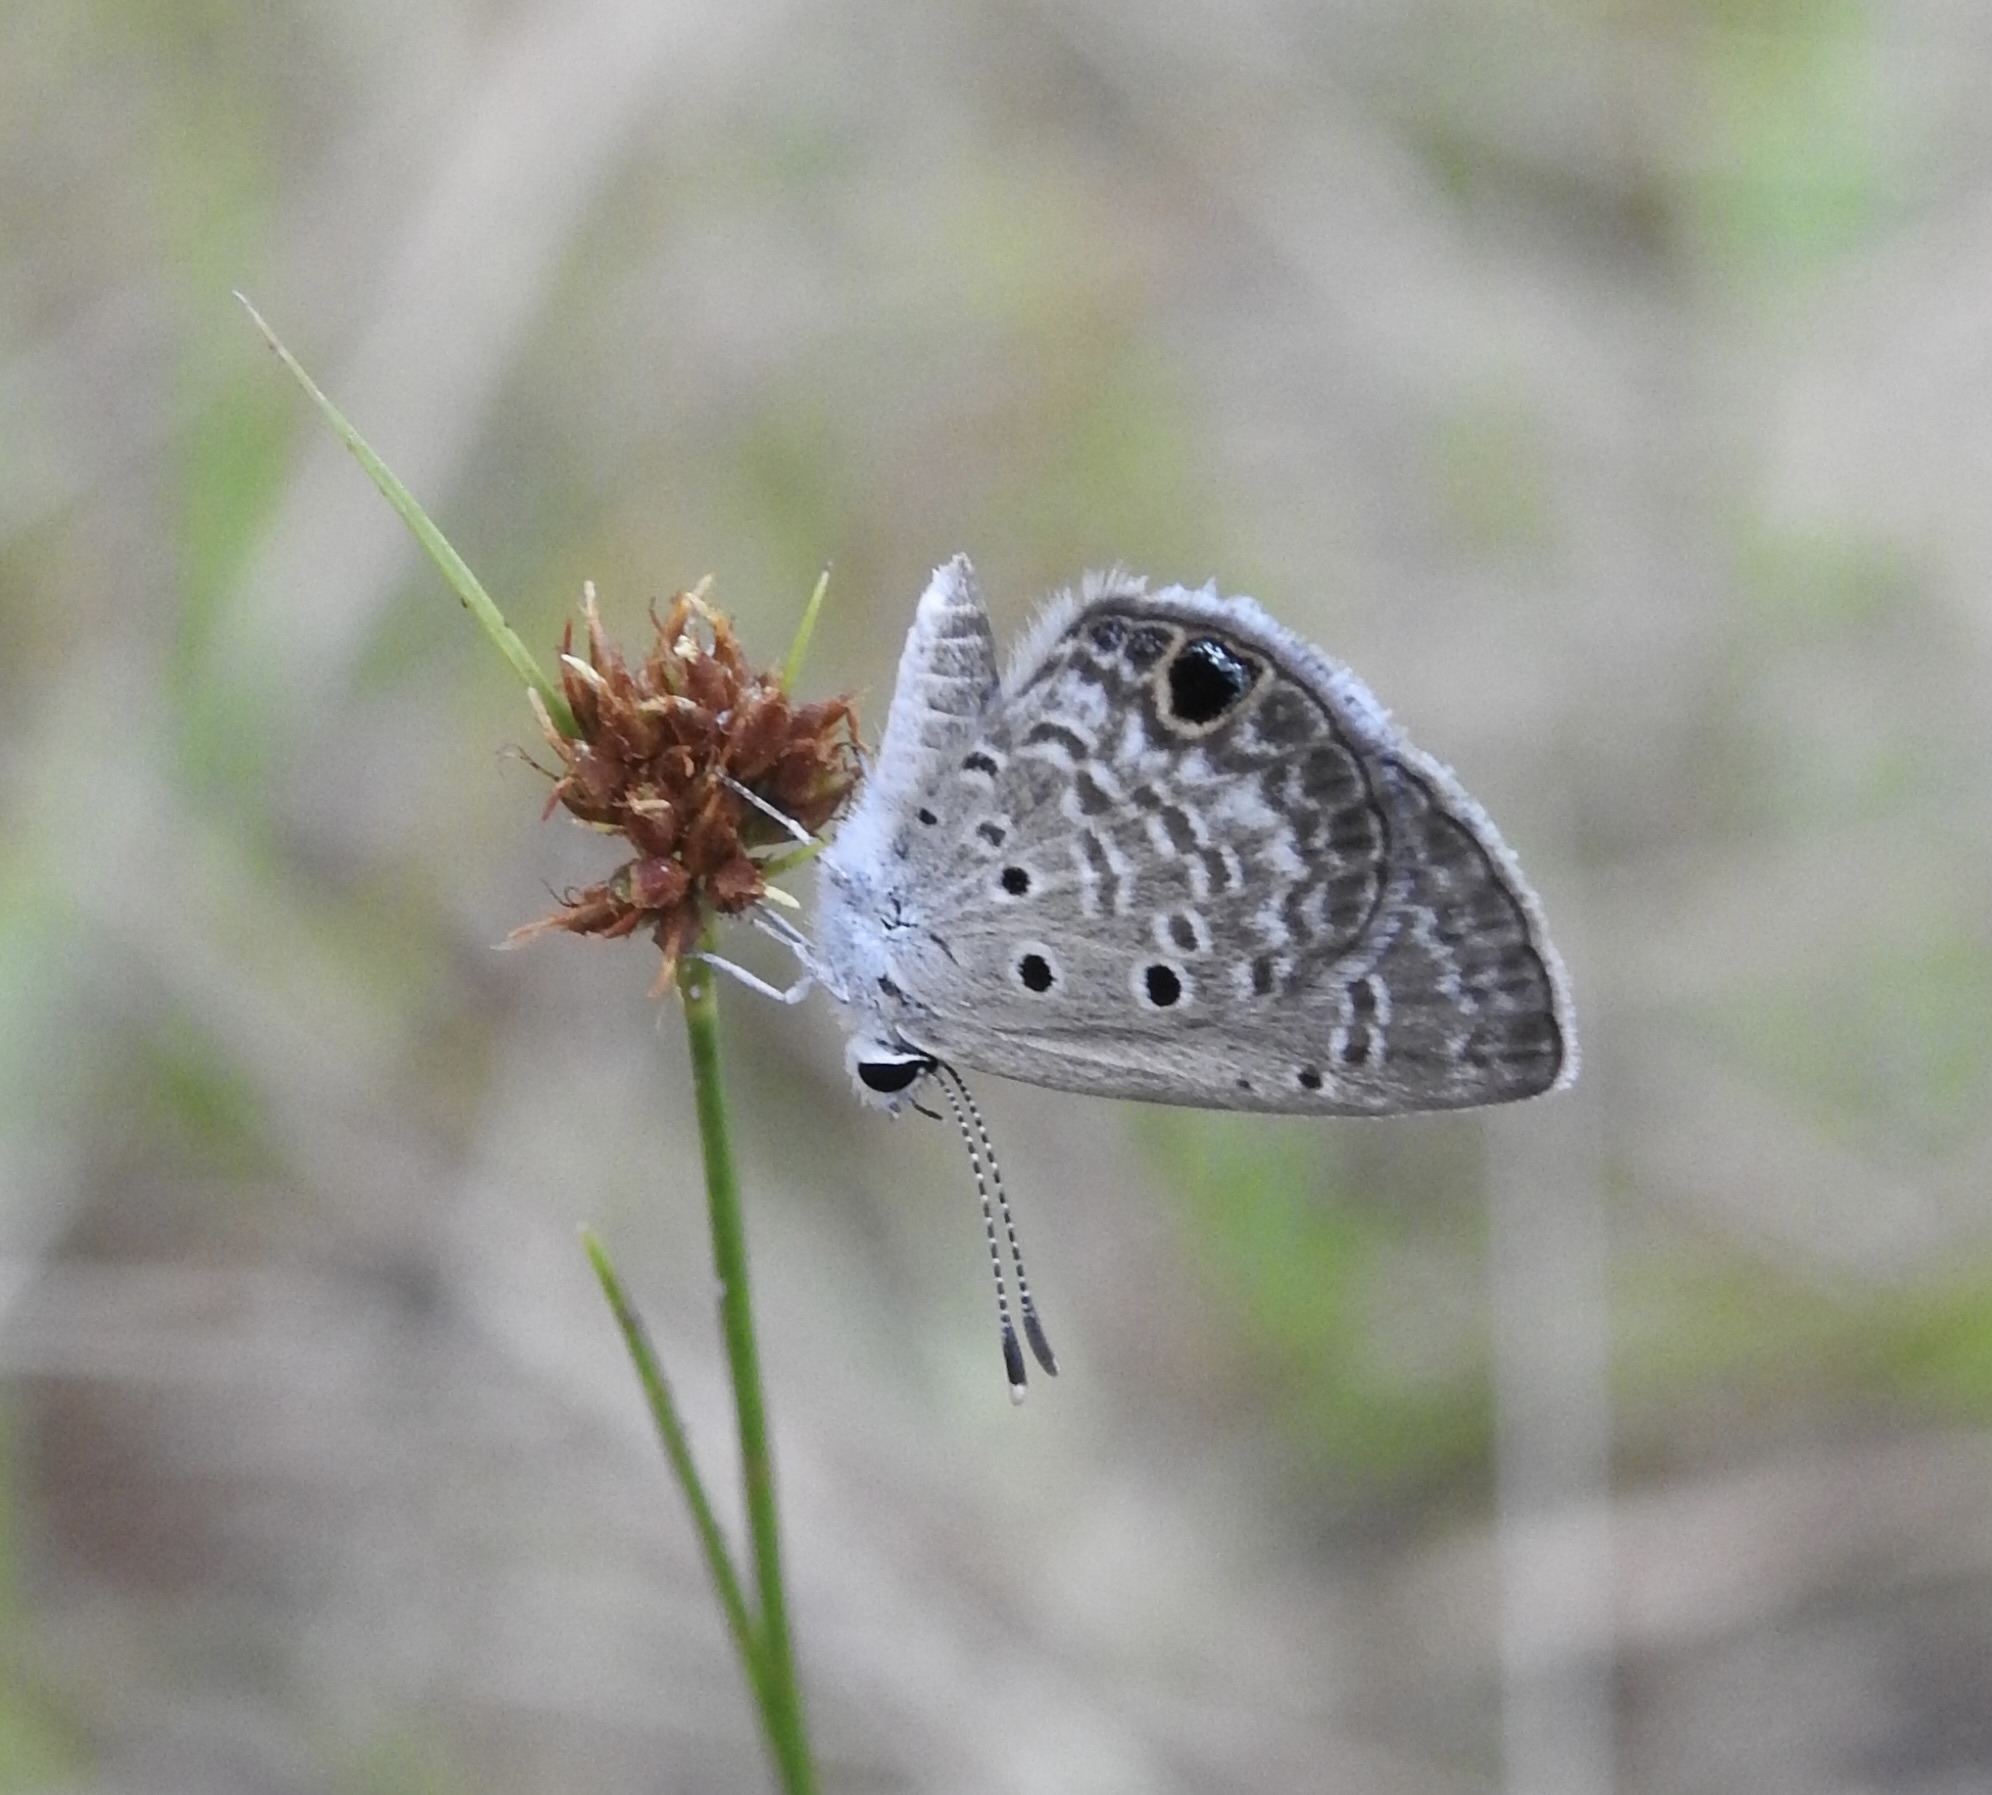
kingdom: Animalia
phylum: Arthropoda
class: Insecta
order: Lepidoptera
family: Lycaenidae
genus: Hemiargus
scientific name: Hemiargus ceraunus
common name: Ceraunus blue
